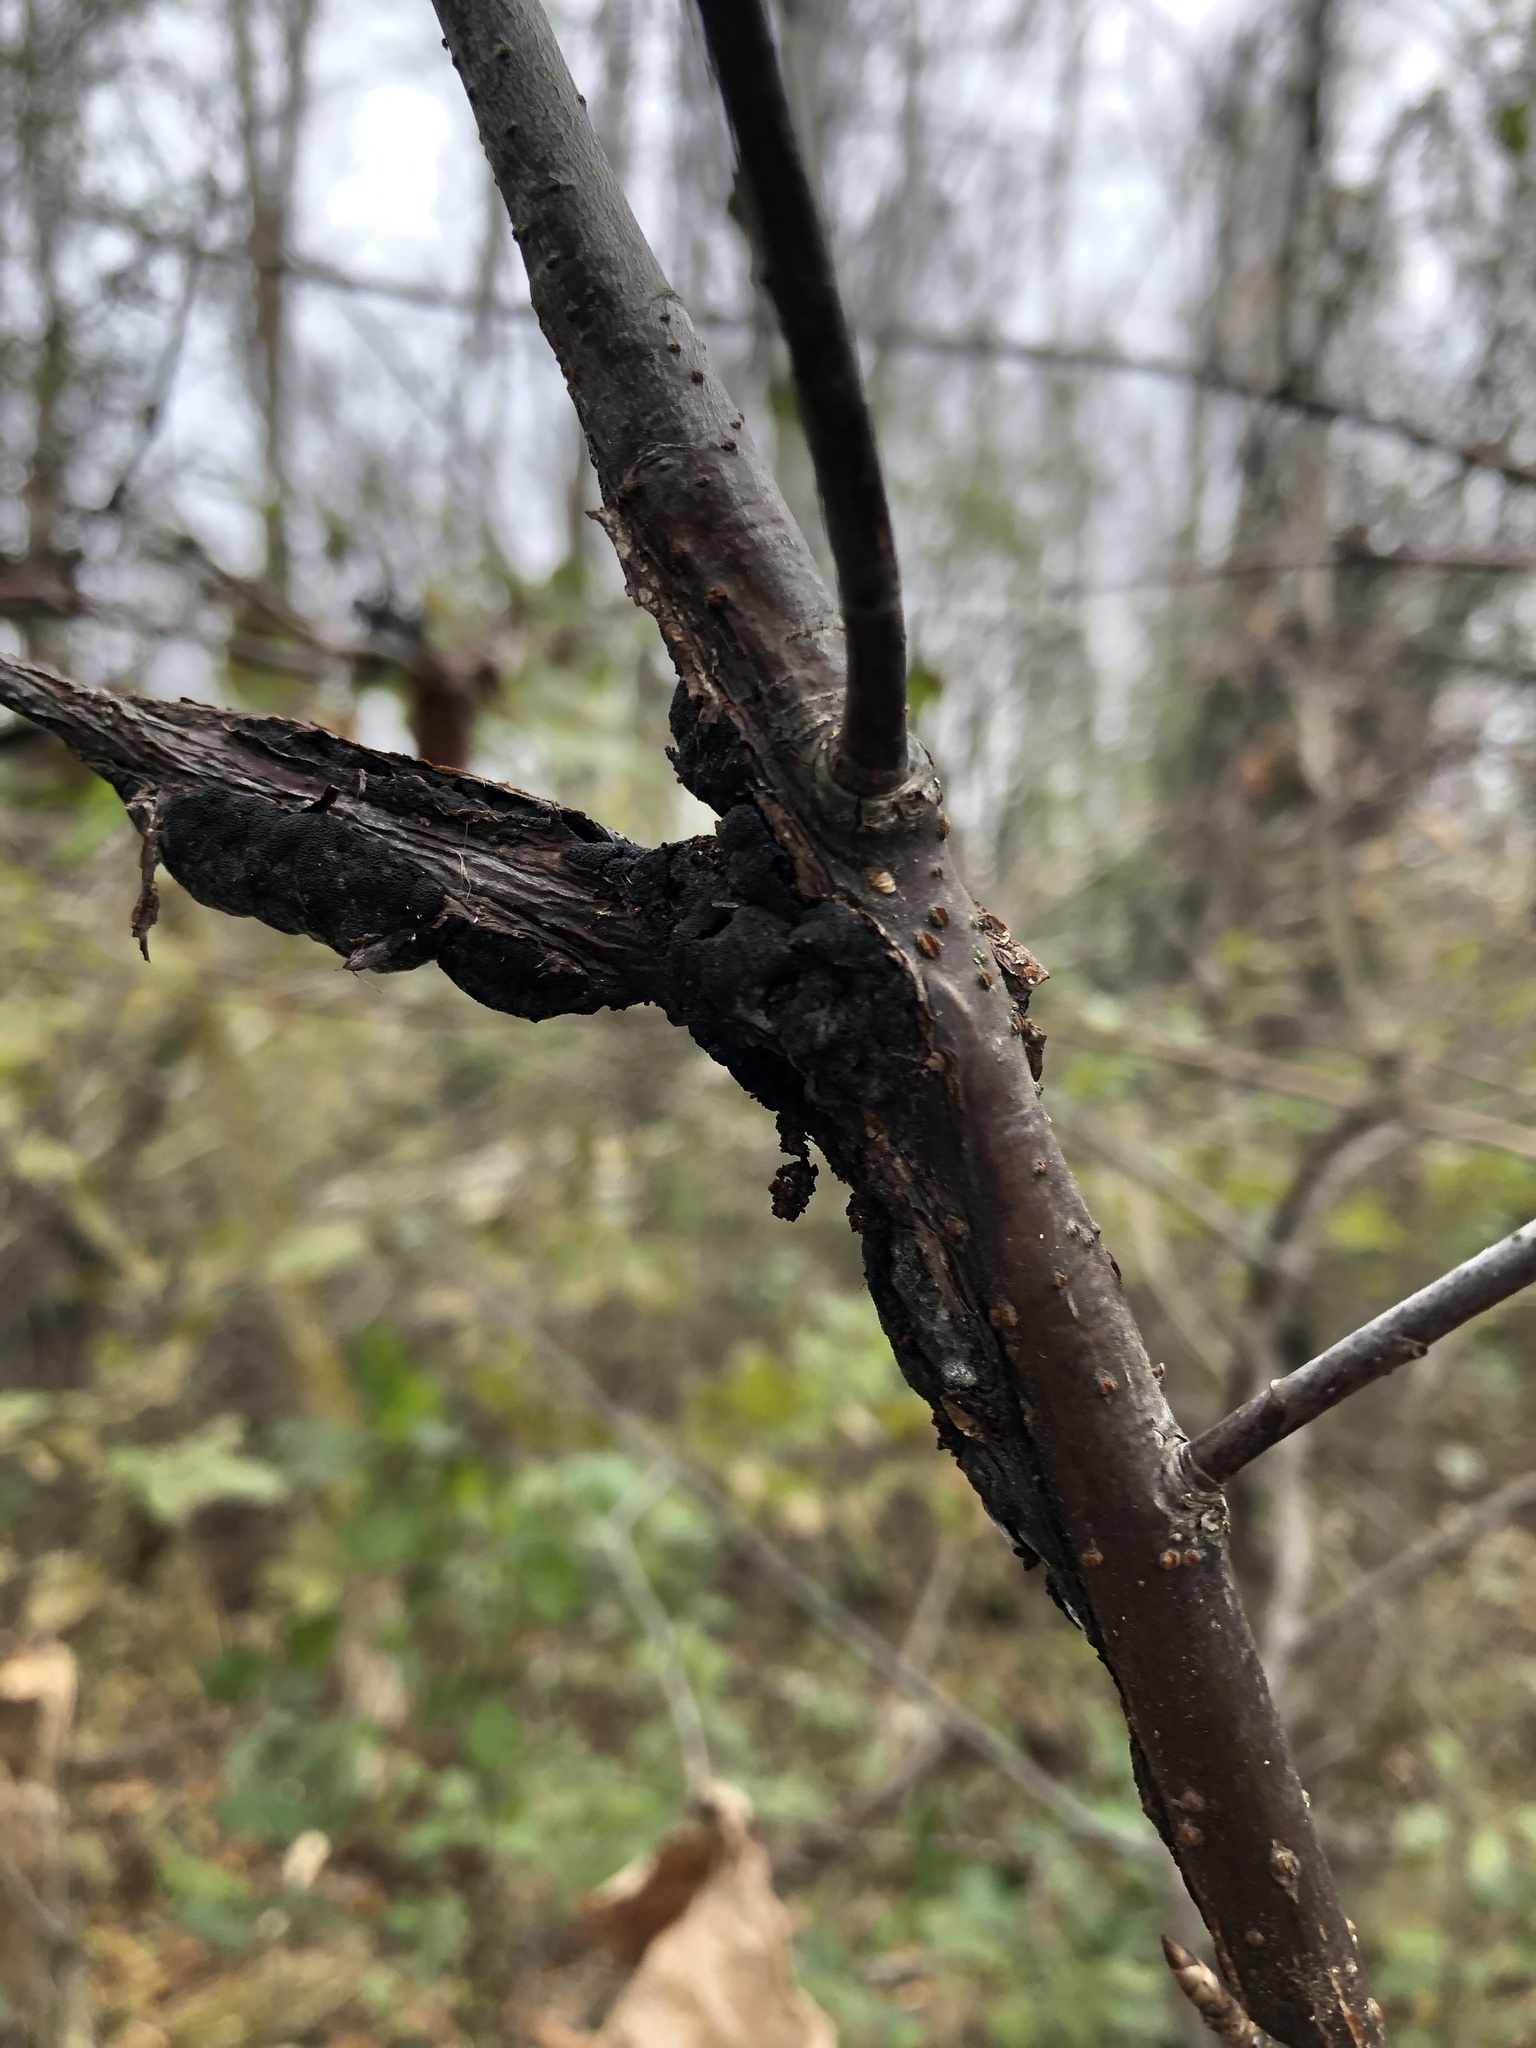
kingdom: Fungi
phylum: Ascomycota
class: Dothideomycetes
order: Venturiales
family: Venturiaceae
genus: Apiosporina
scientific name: Apiosporina morbosa
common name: Black knot
